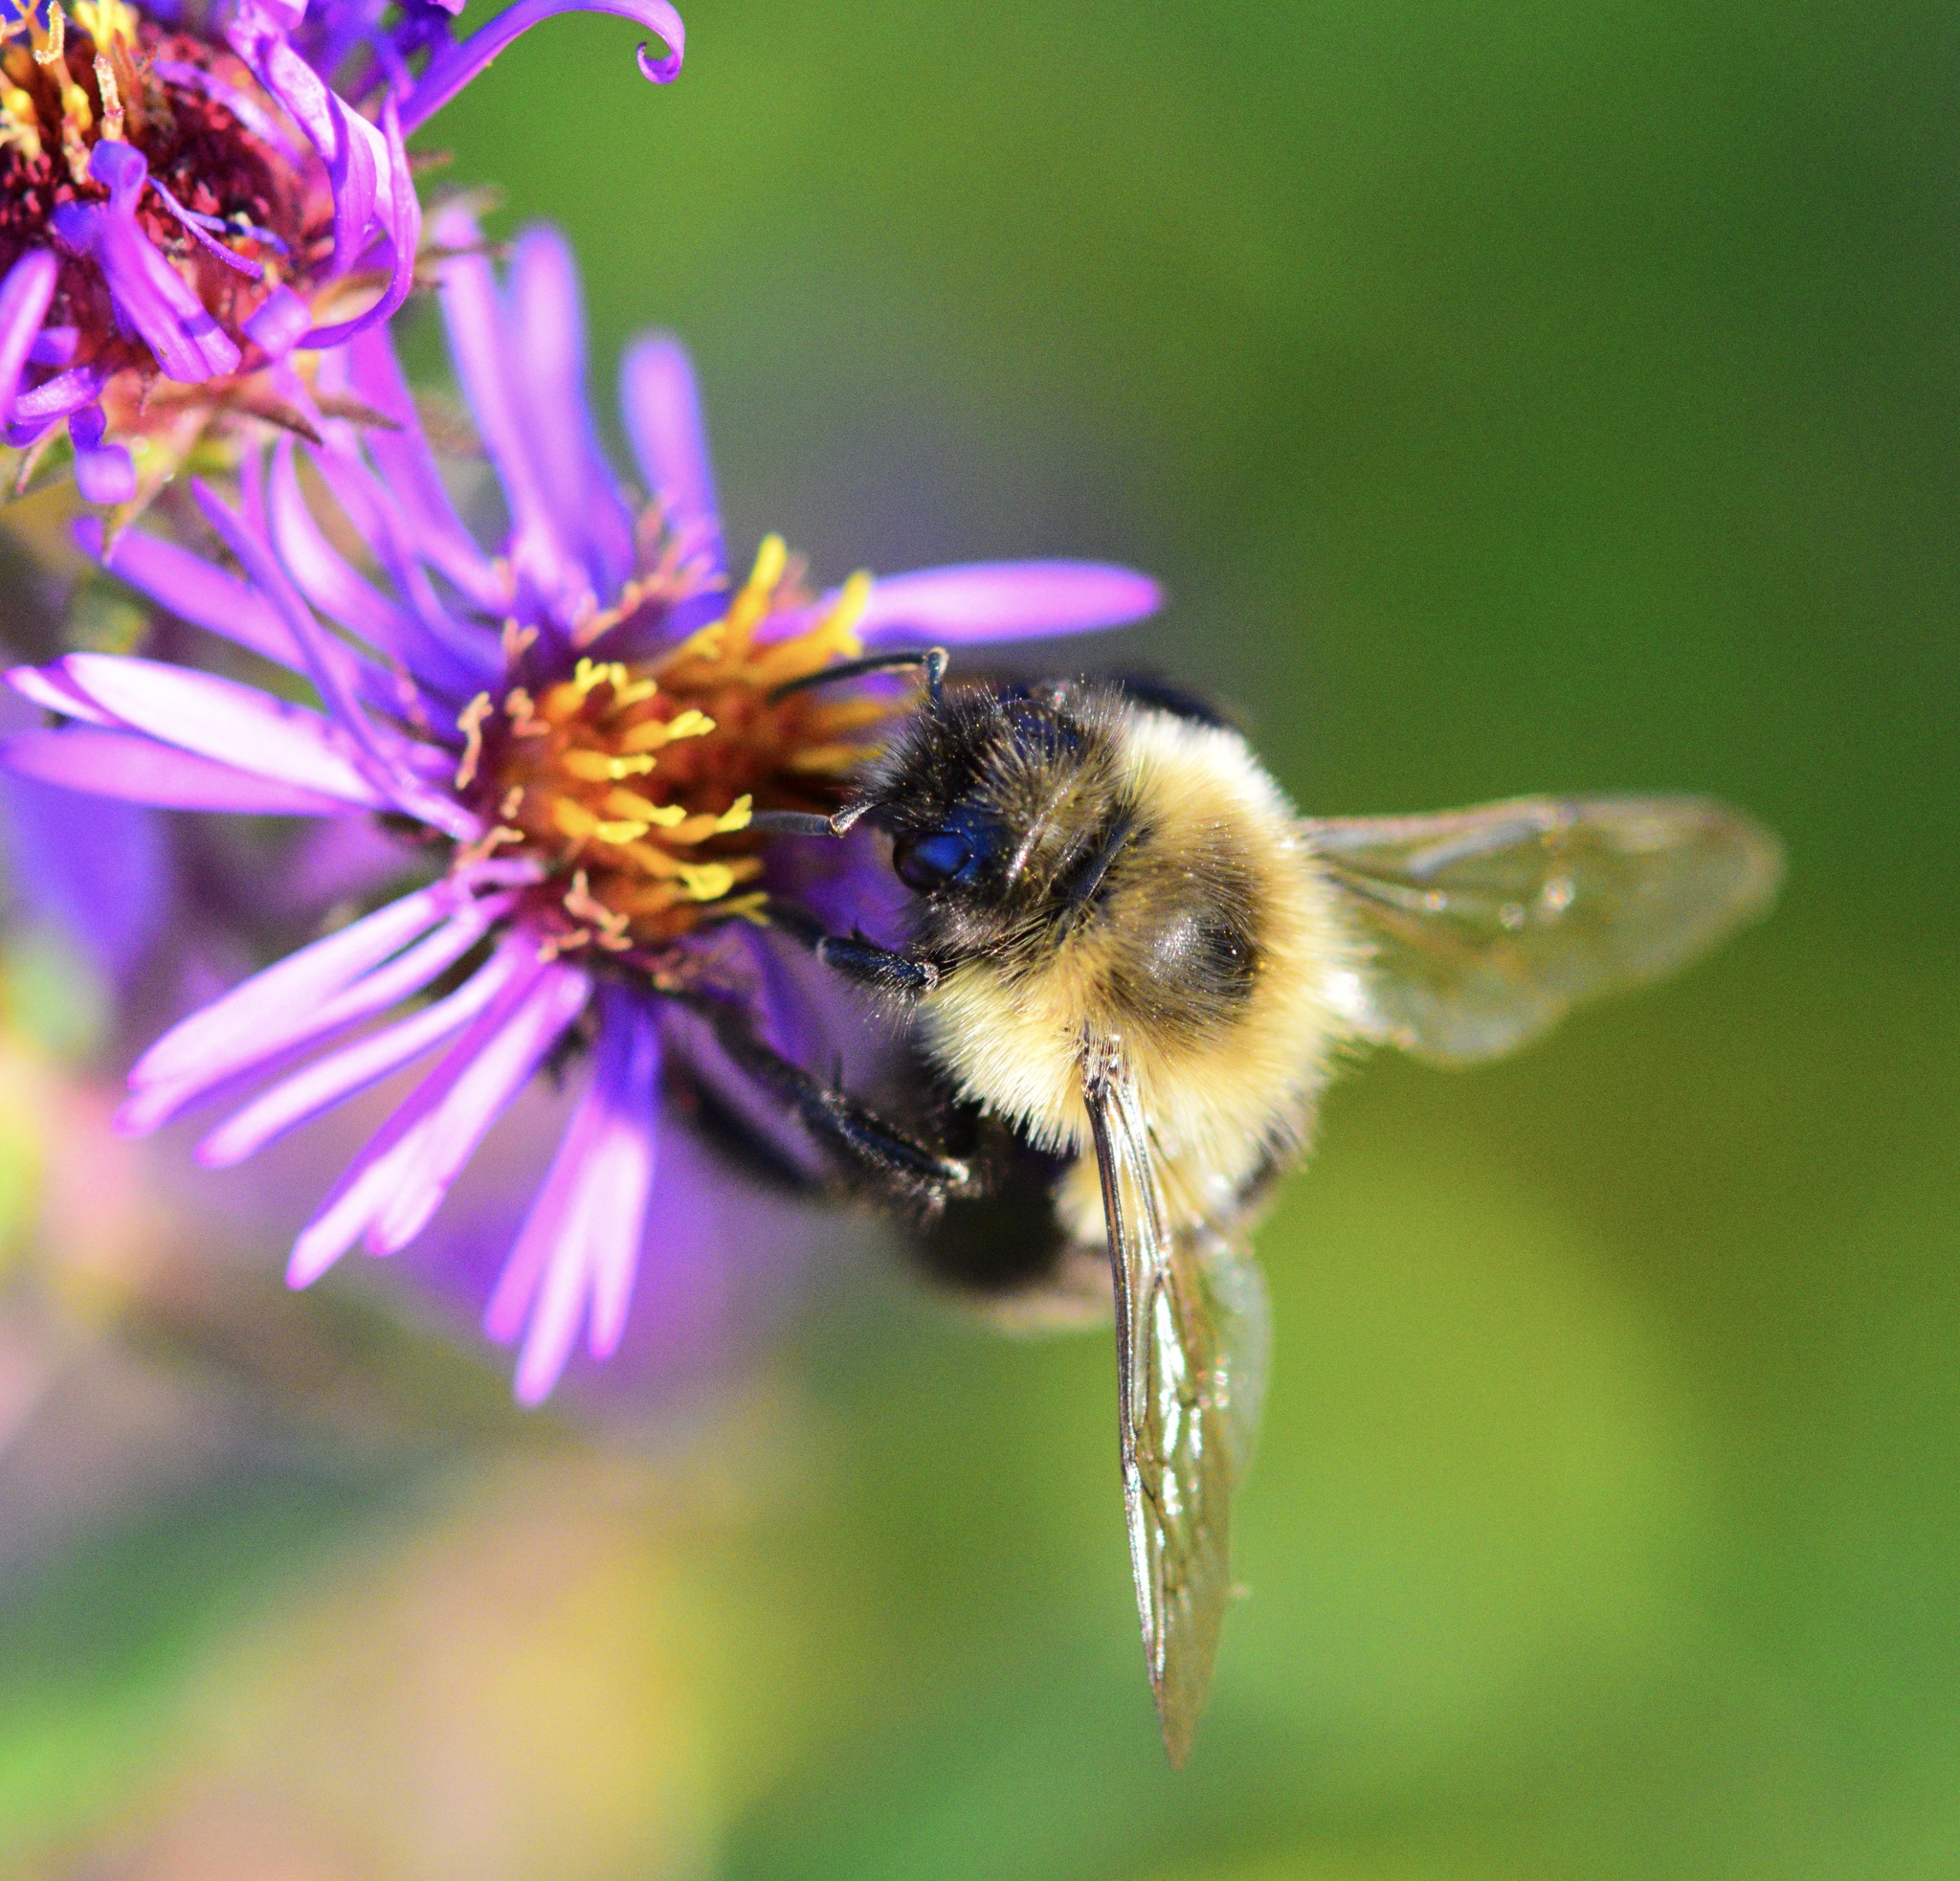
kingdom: Animalia
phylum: Arthropoda
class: Insecta
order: Hymenoptera
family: Apidae
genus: Bombus
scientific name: Bombus impatiens
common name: Common eastern bumble bee
